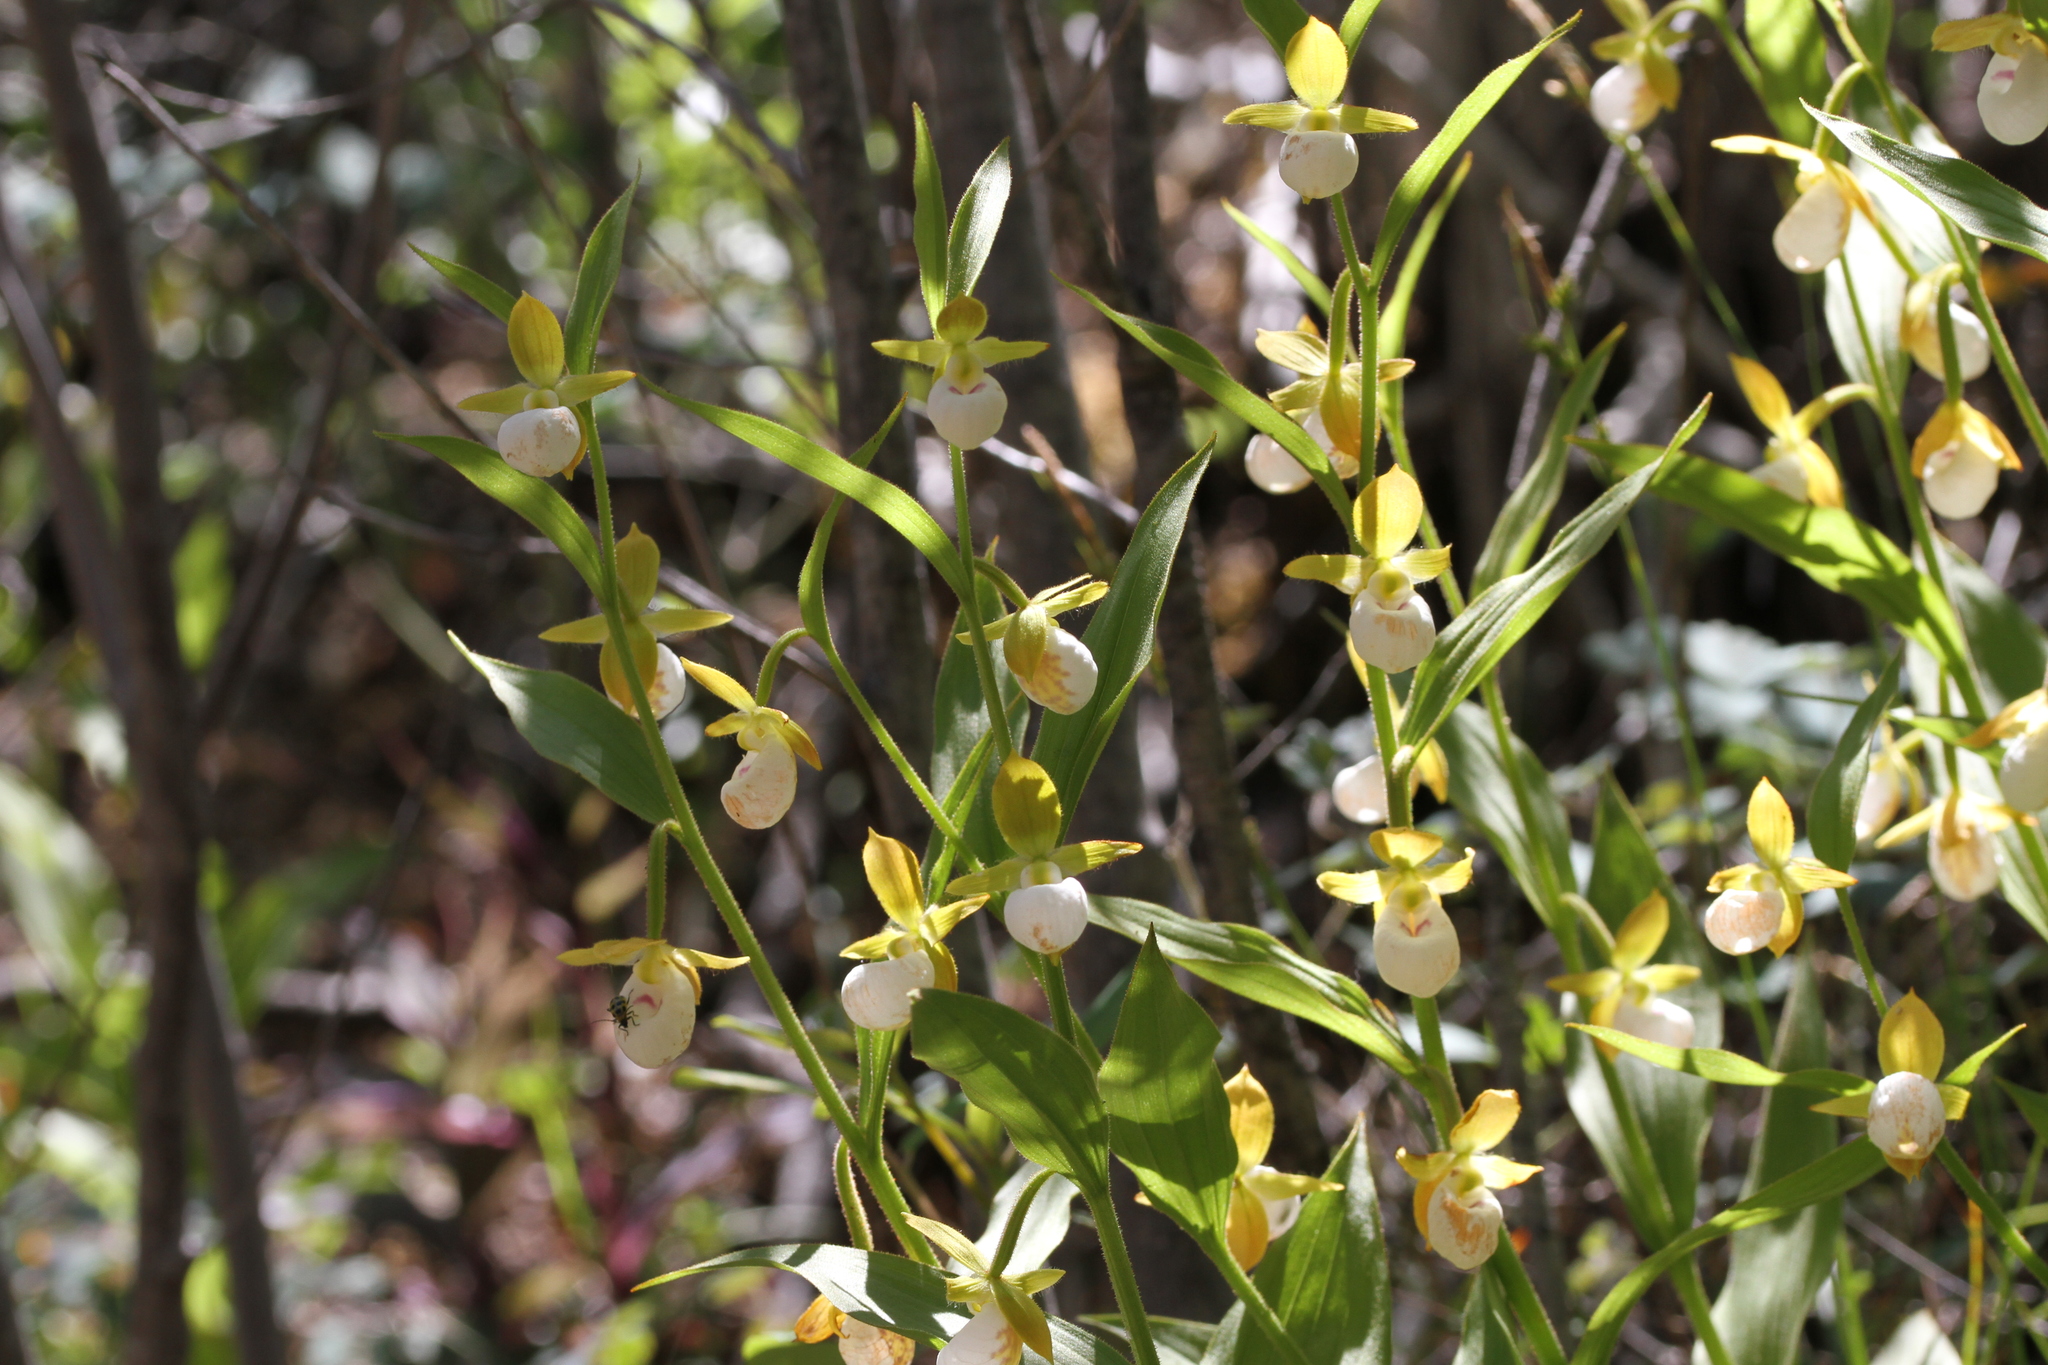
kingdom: Plantae
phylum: Tracheophyta
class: Liliopsida
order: Asparagales
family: Orchidaceae
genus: Cypripedium
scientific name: Cypripedium californicum
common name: California lady's slipper
